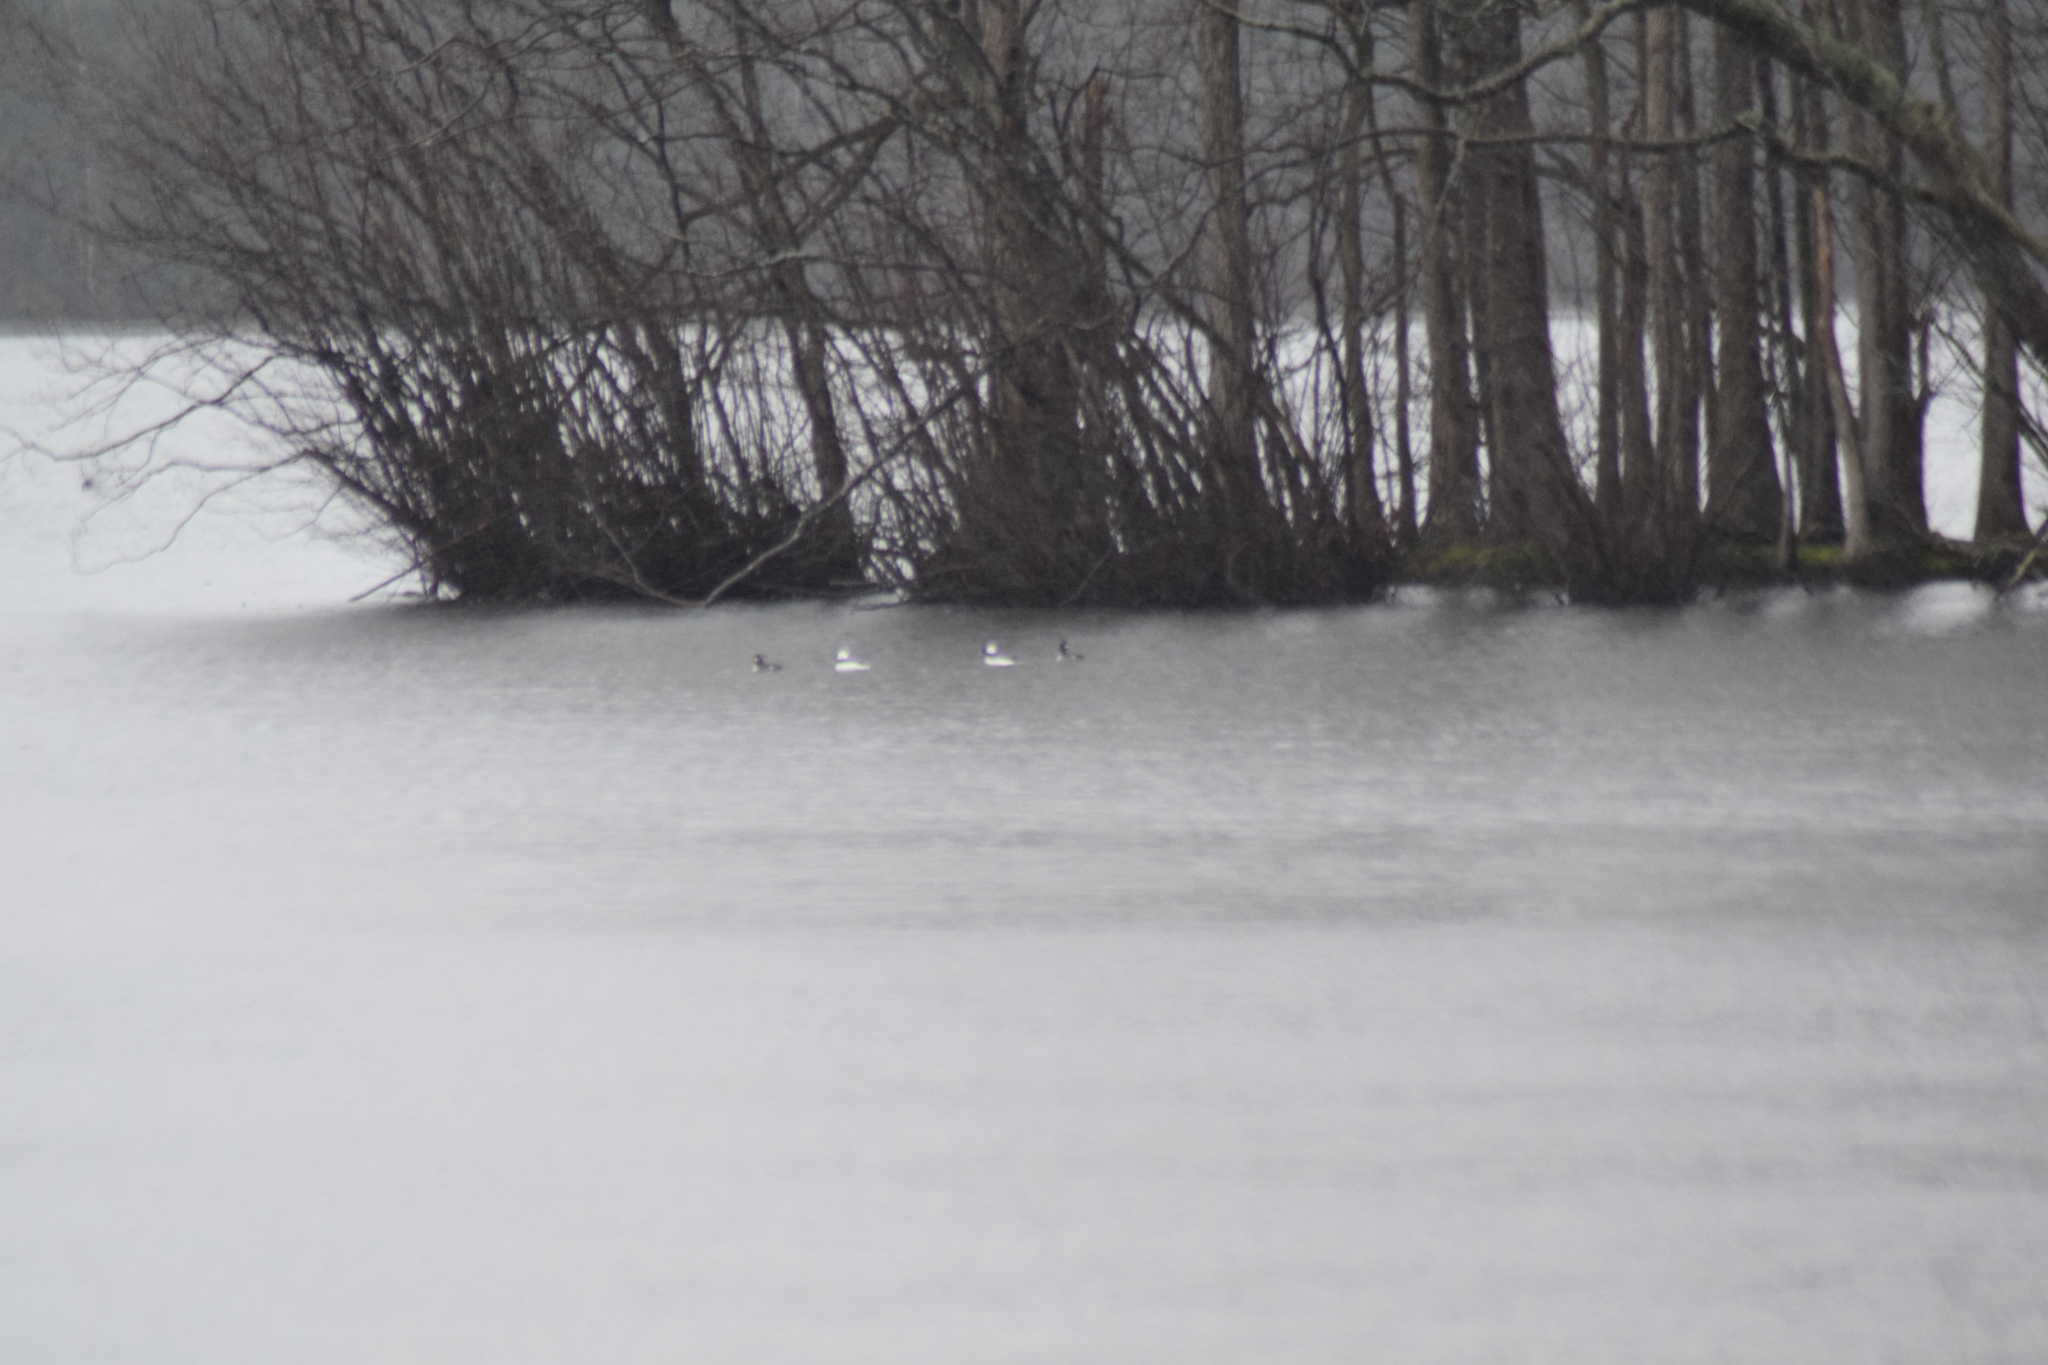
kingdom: Animalia
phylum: Chordata
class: Aves
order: Anseriformes
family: Anatidae
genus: Bucephala
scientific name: Bucephala albeola
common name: Bufflehead
